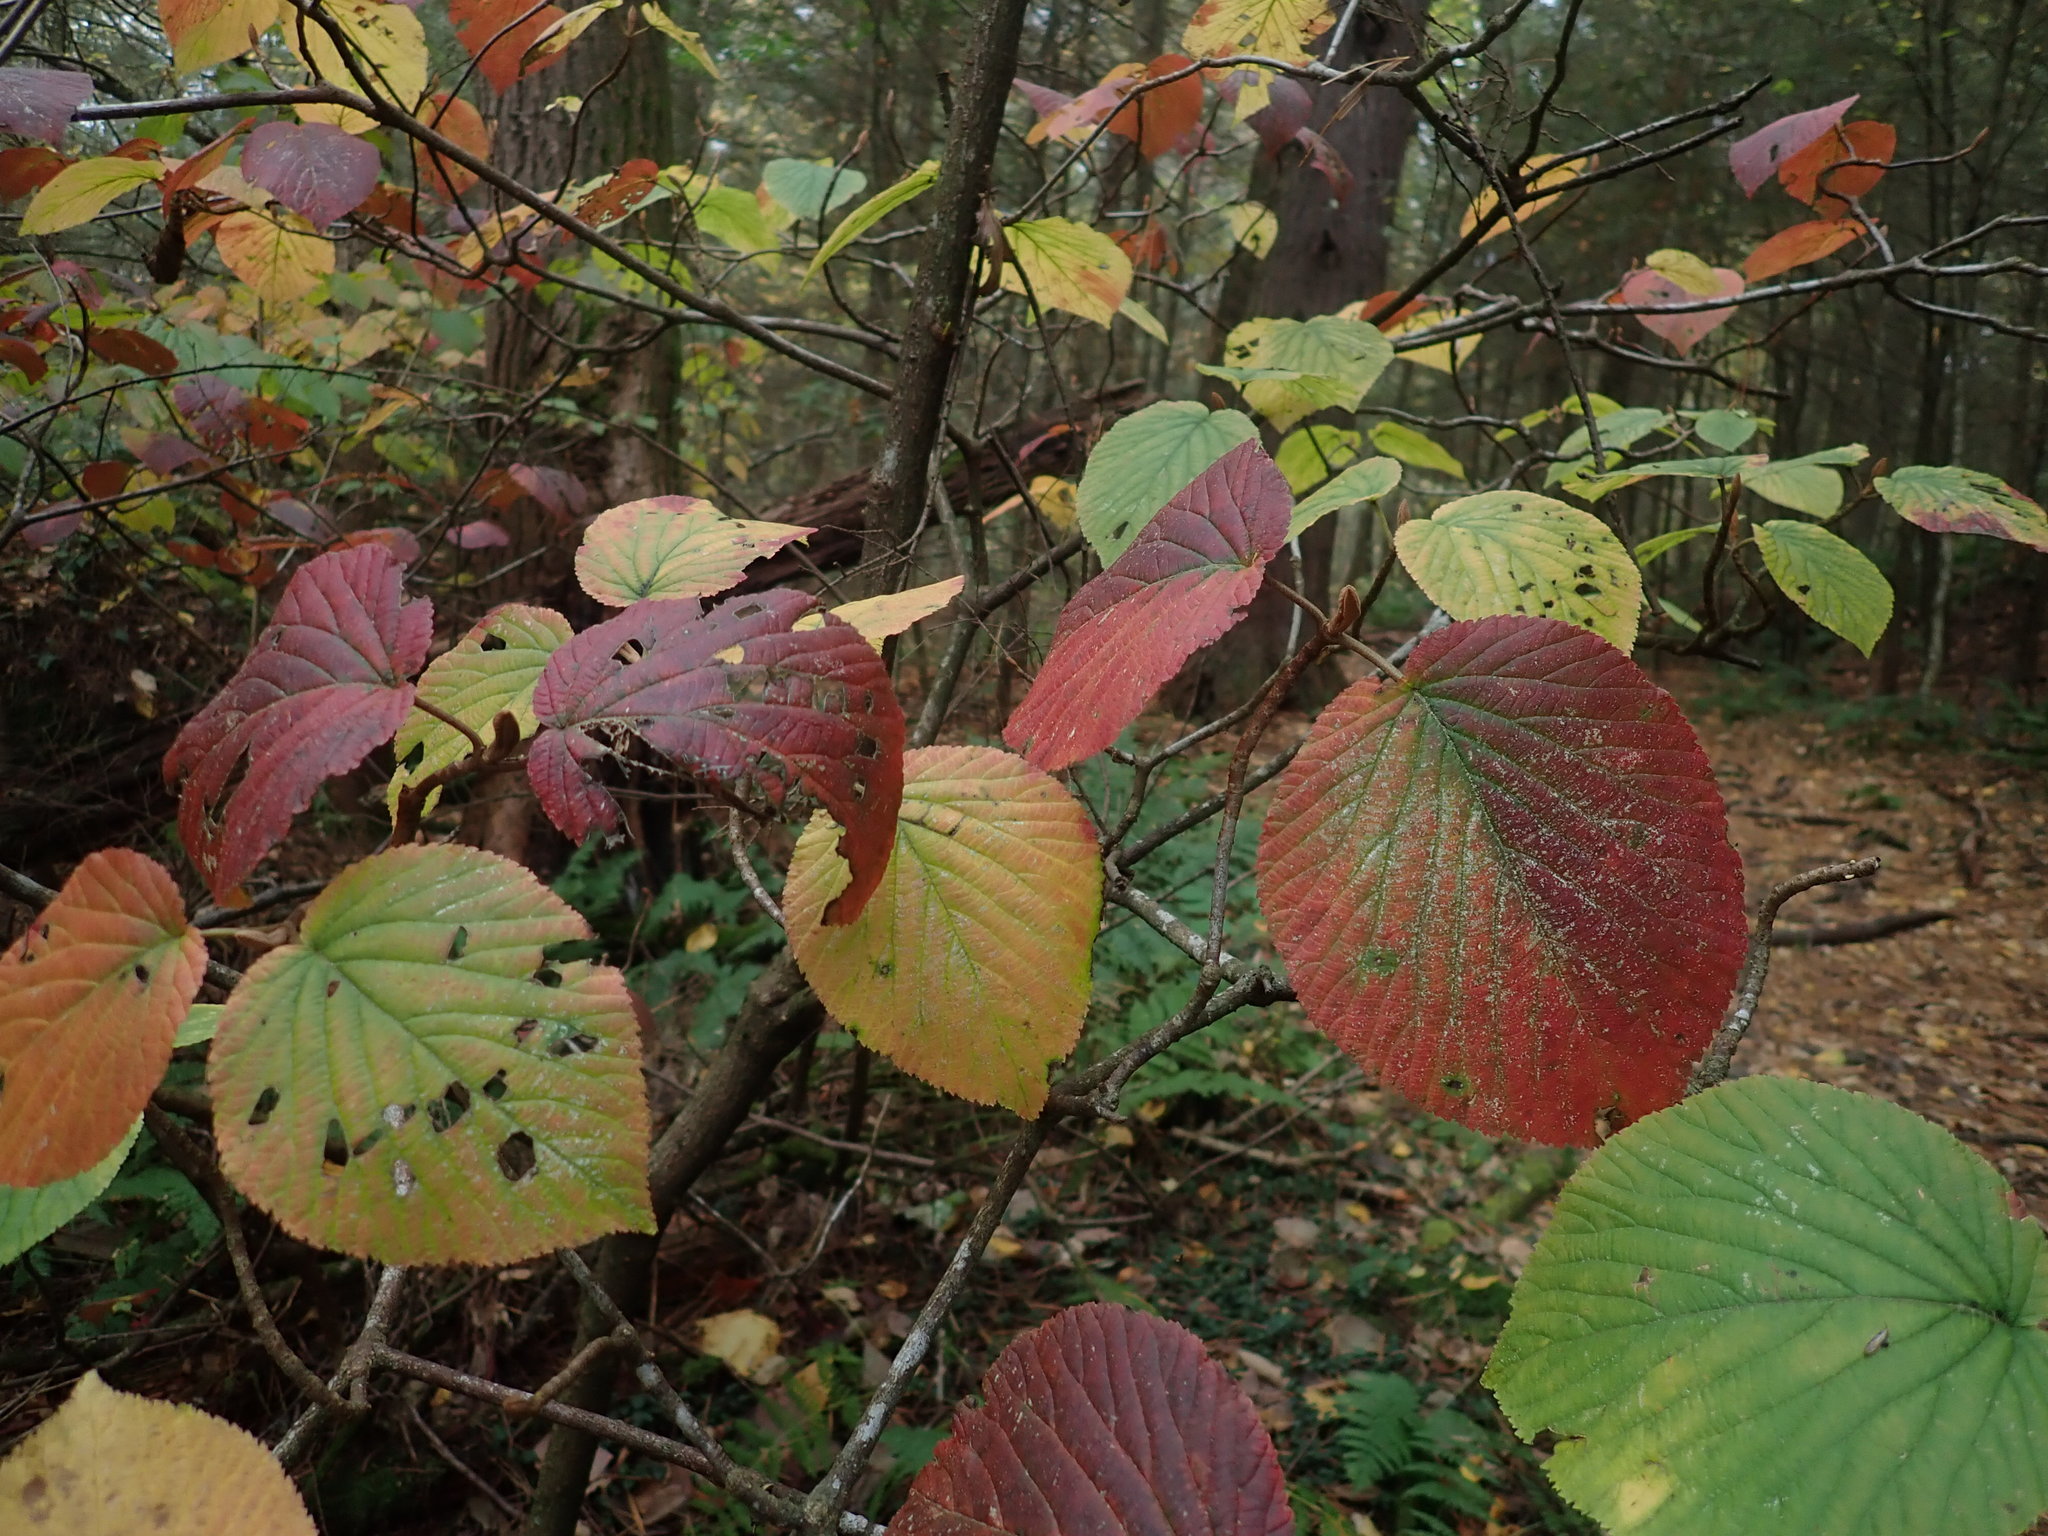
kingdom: Plantae
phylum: Tracheophyta
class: Magnoliopsida
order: Dipsacales
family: Viburnaceae
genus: Viburnum
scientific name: Viburnum lantanoides
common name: Hobblebush
